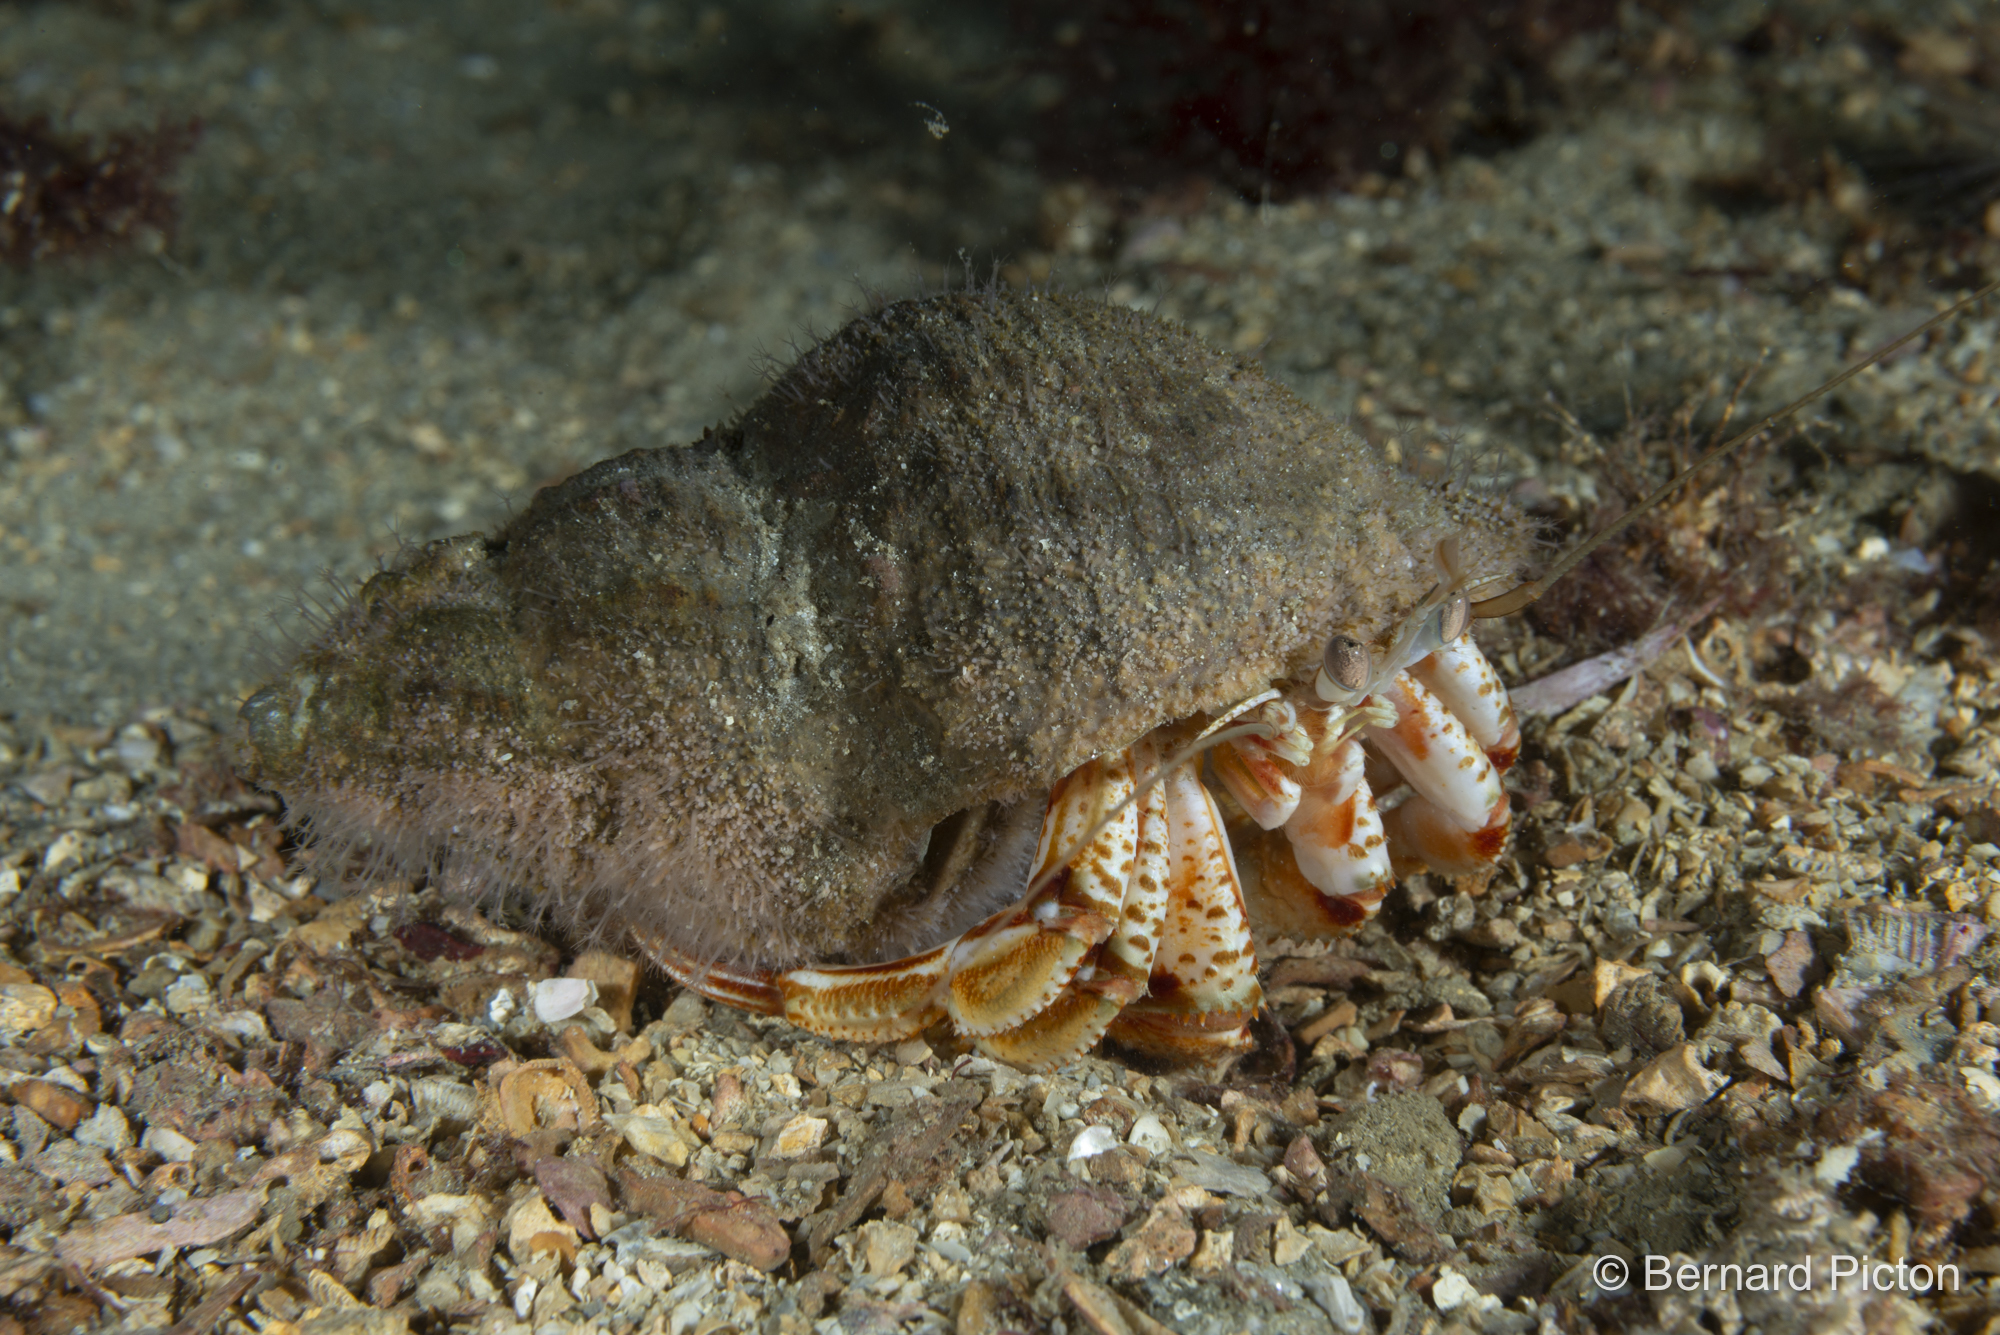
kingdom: Animalia
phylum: Cnidaria
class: Hydrozoa
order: Anthoathecata
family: Hydractiniidae
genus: Hydractinia
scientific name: Hydractinia echinata
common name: Rough hydroid
